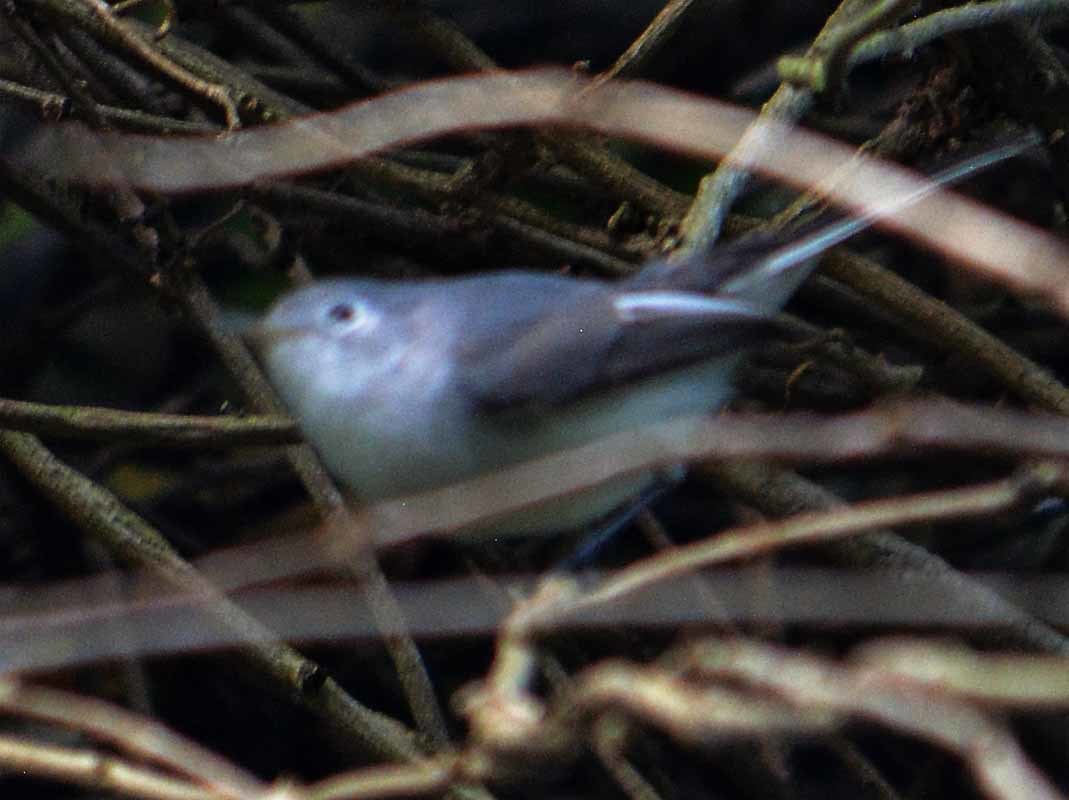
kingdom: Animalia
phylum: Chordata
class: Aves
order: Passeriformes
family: Polioptilidae
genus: Polioptila
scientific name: Polioptila caerulea
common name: Blue-gray gnatcatcher
